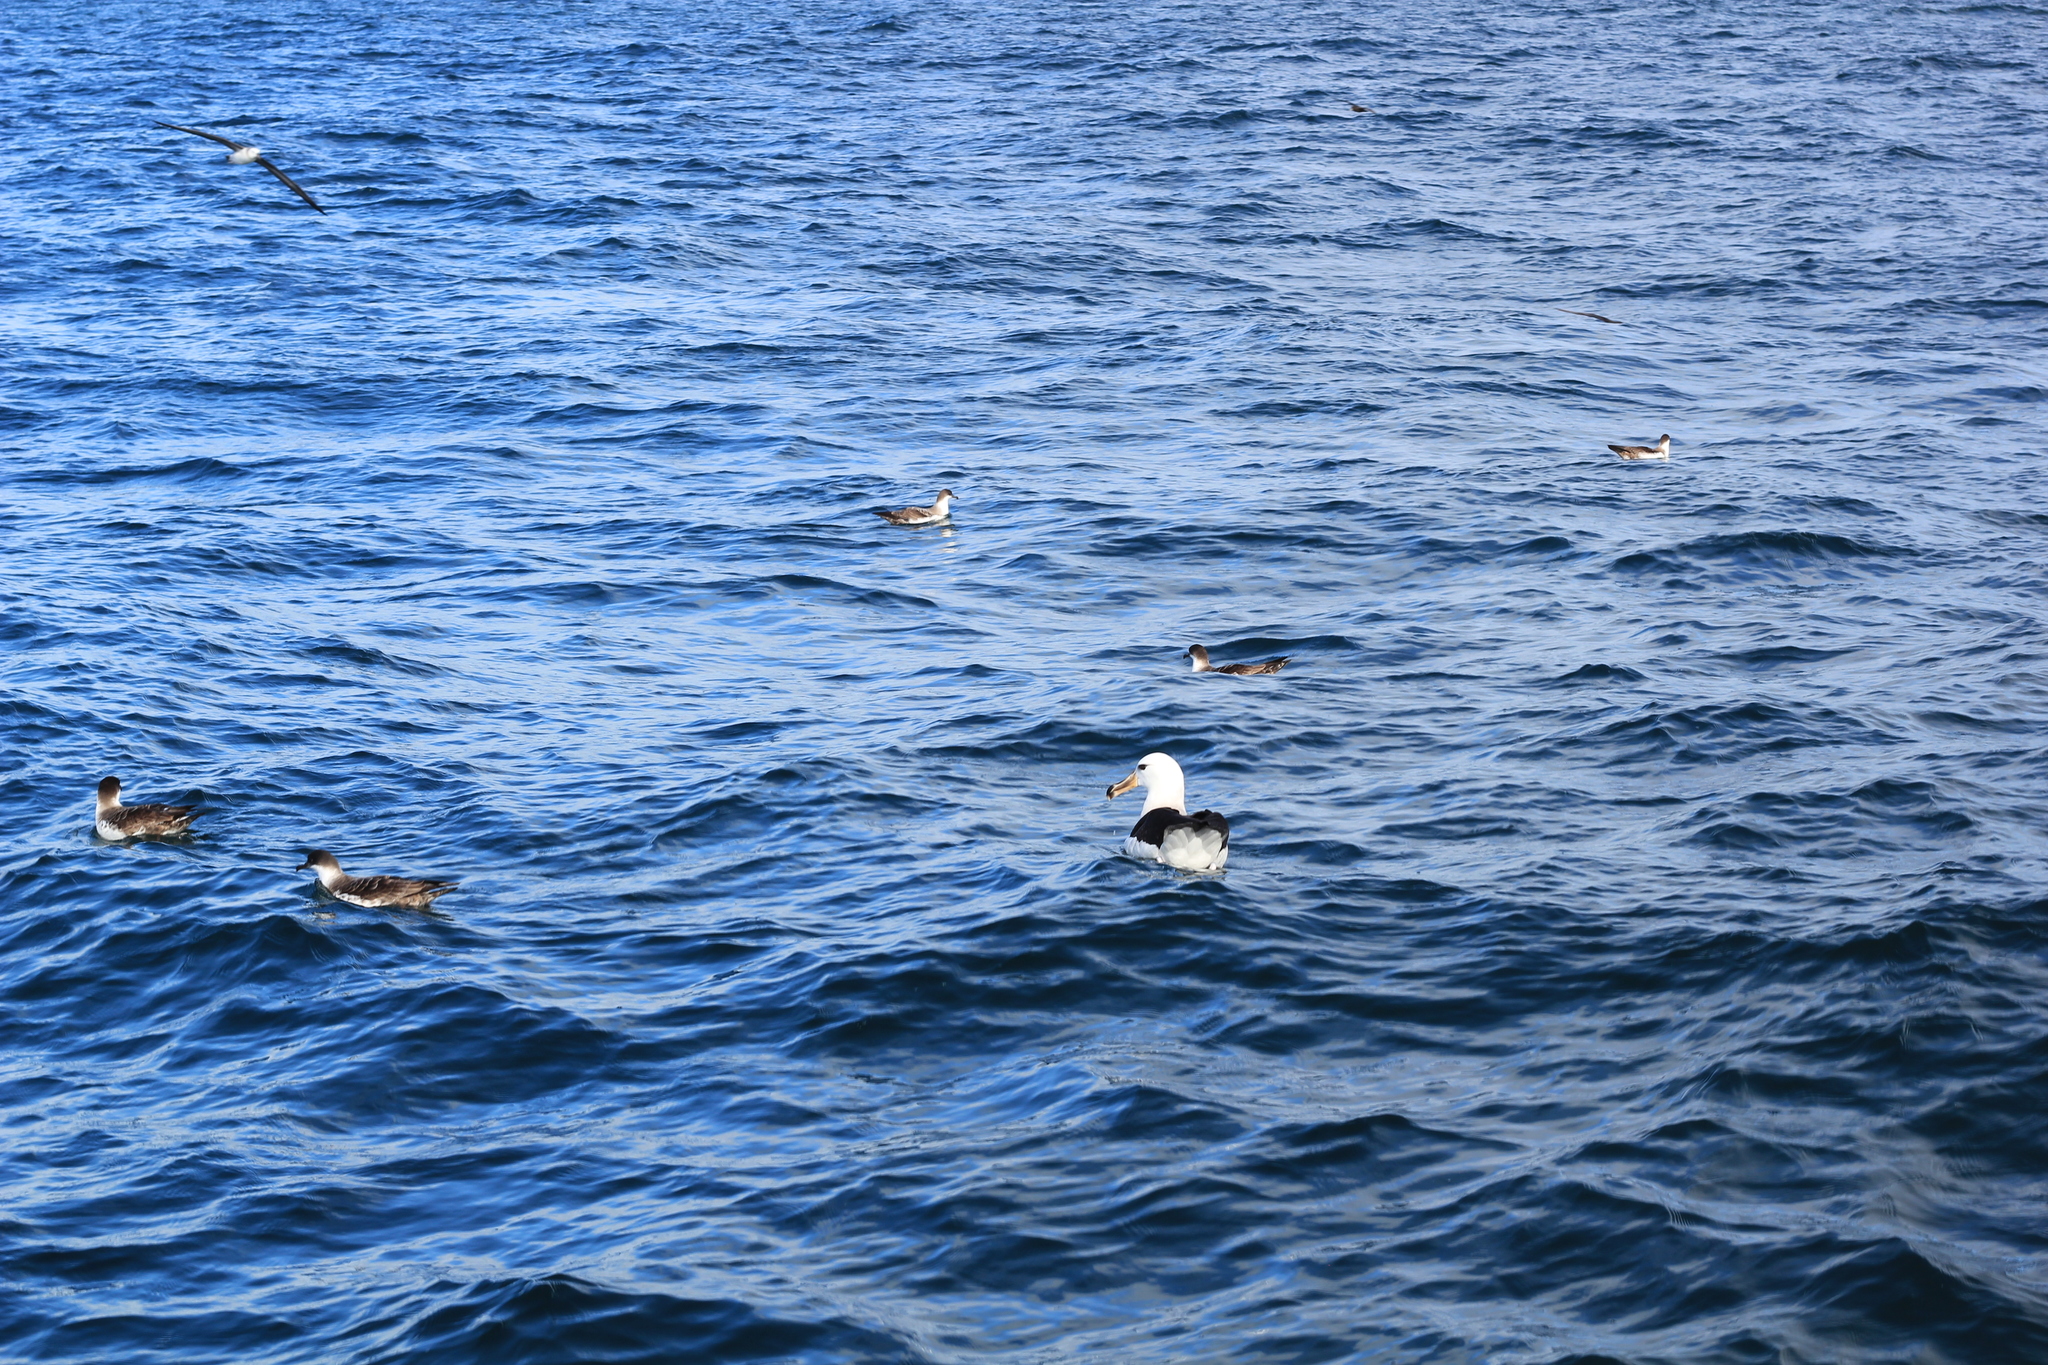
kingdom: Animalia
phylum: Chordata
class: Aves
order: Procellariiformes
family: Procellariidae
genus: Puffinus
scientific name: Puffinus gravis
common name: Great shearwater
